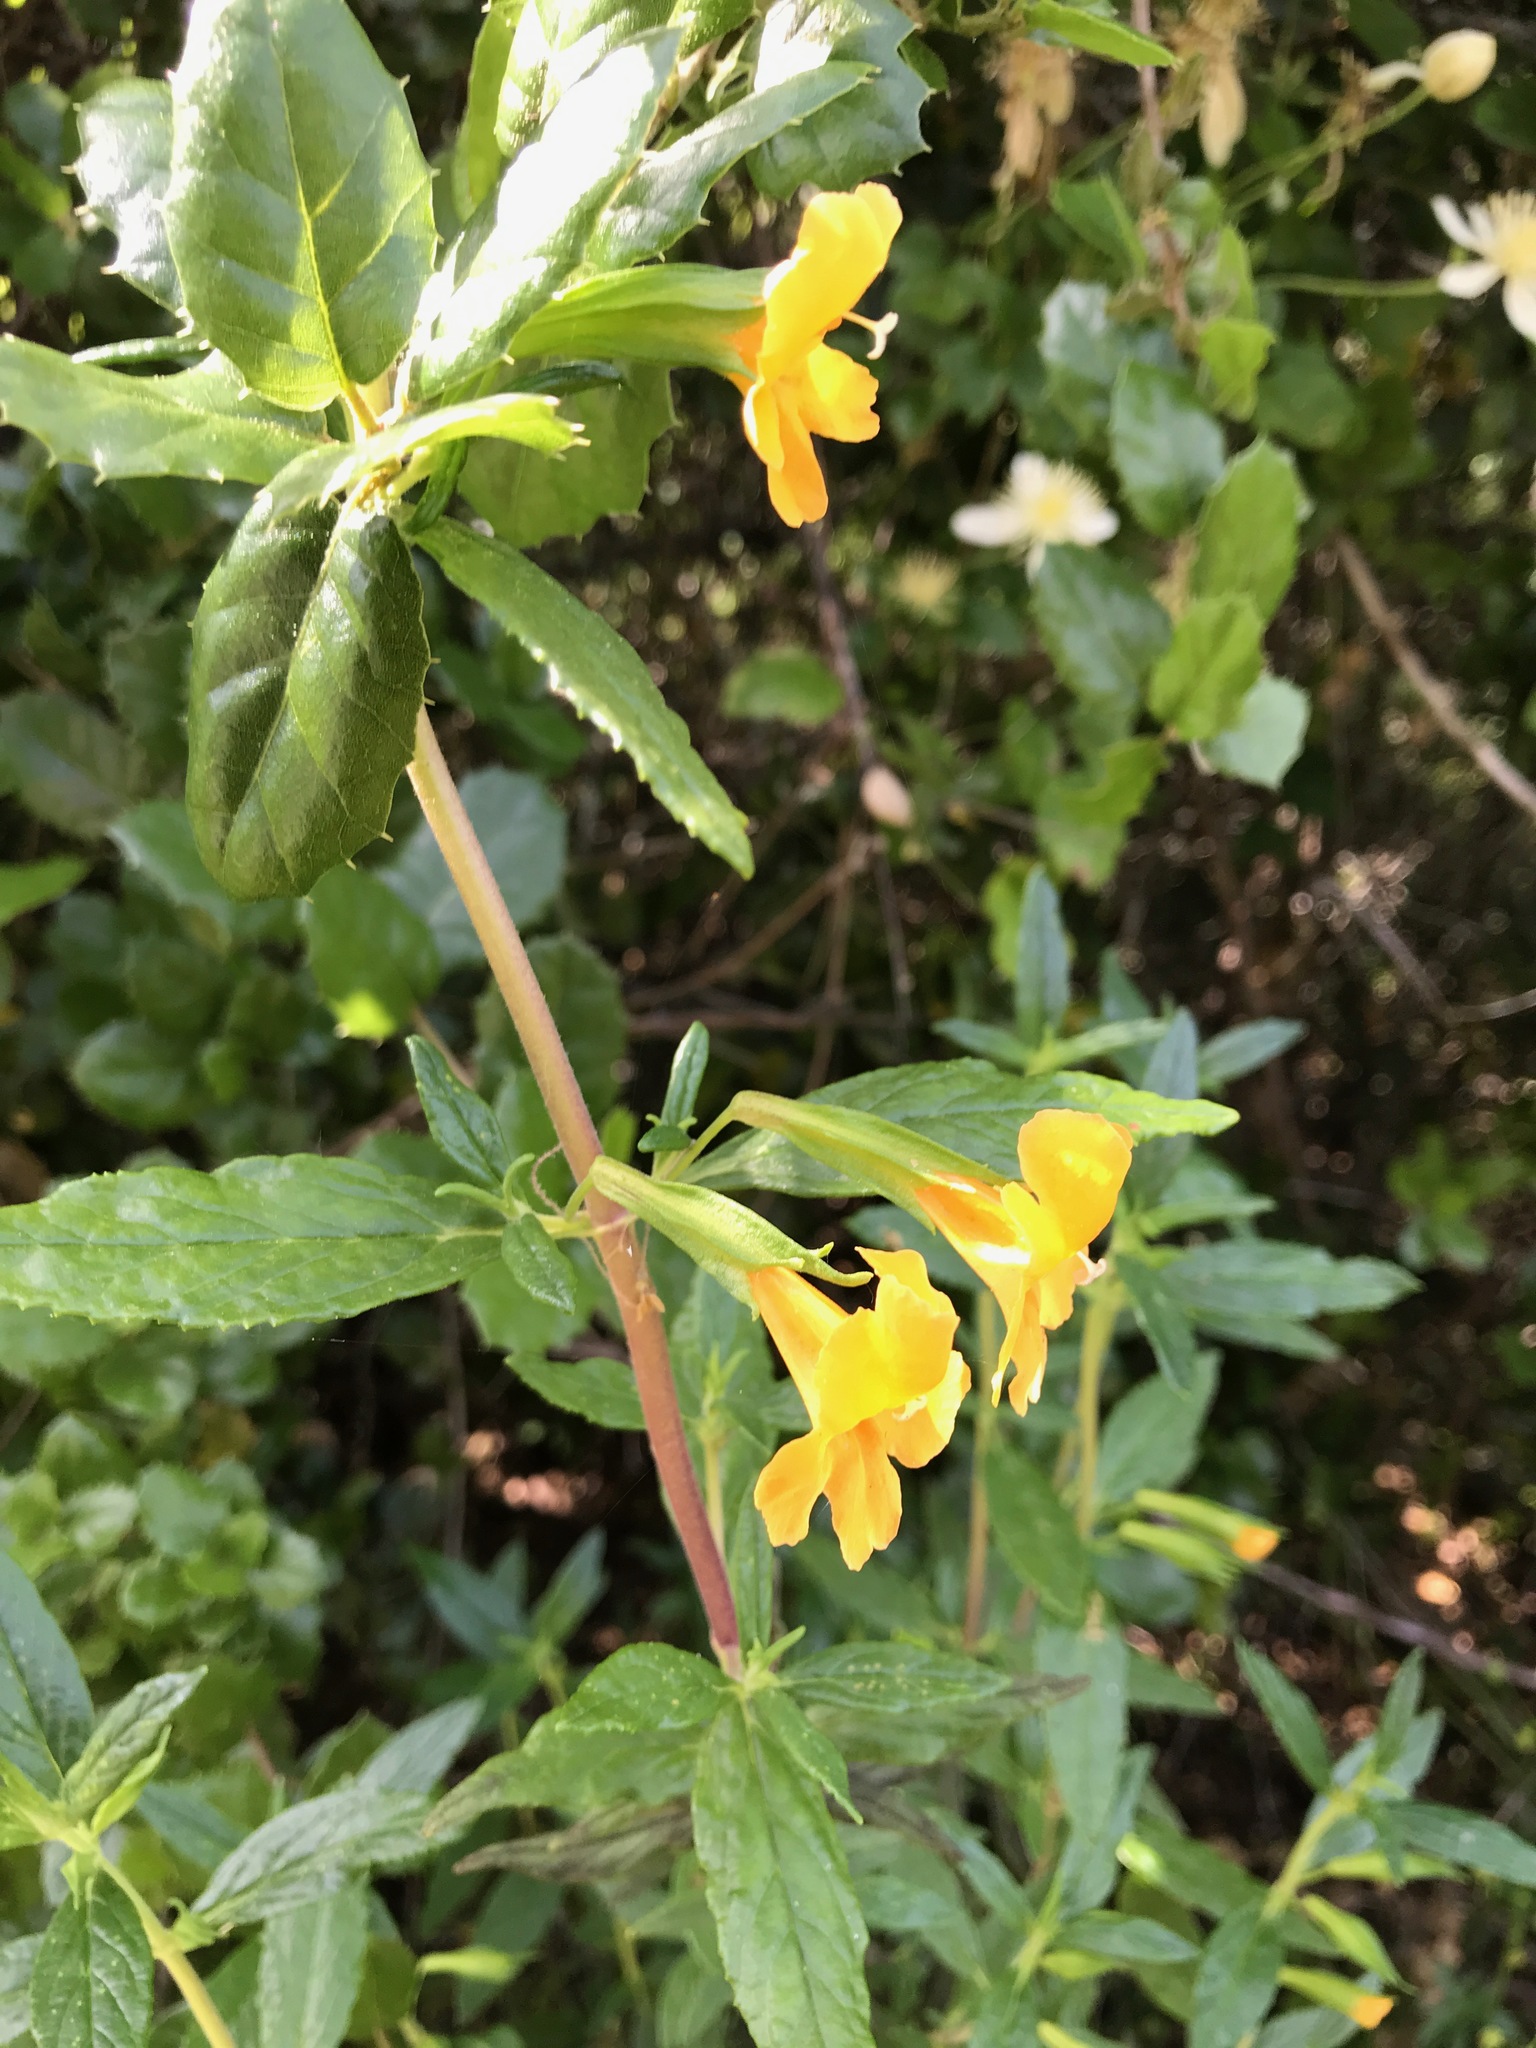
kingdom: Plantae
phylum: Tracheophyta
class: Magnoliopsida
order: Lamiales
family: Phrymaceae
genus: Diplacus
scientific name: Diplacus aurantiacus
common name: Bush monkey-flower
